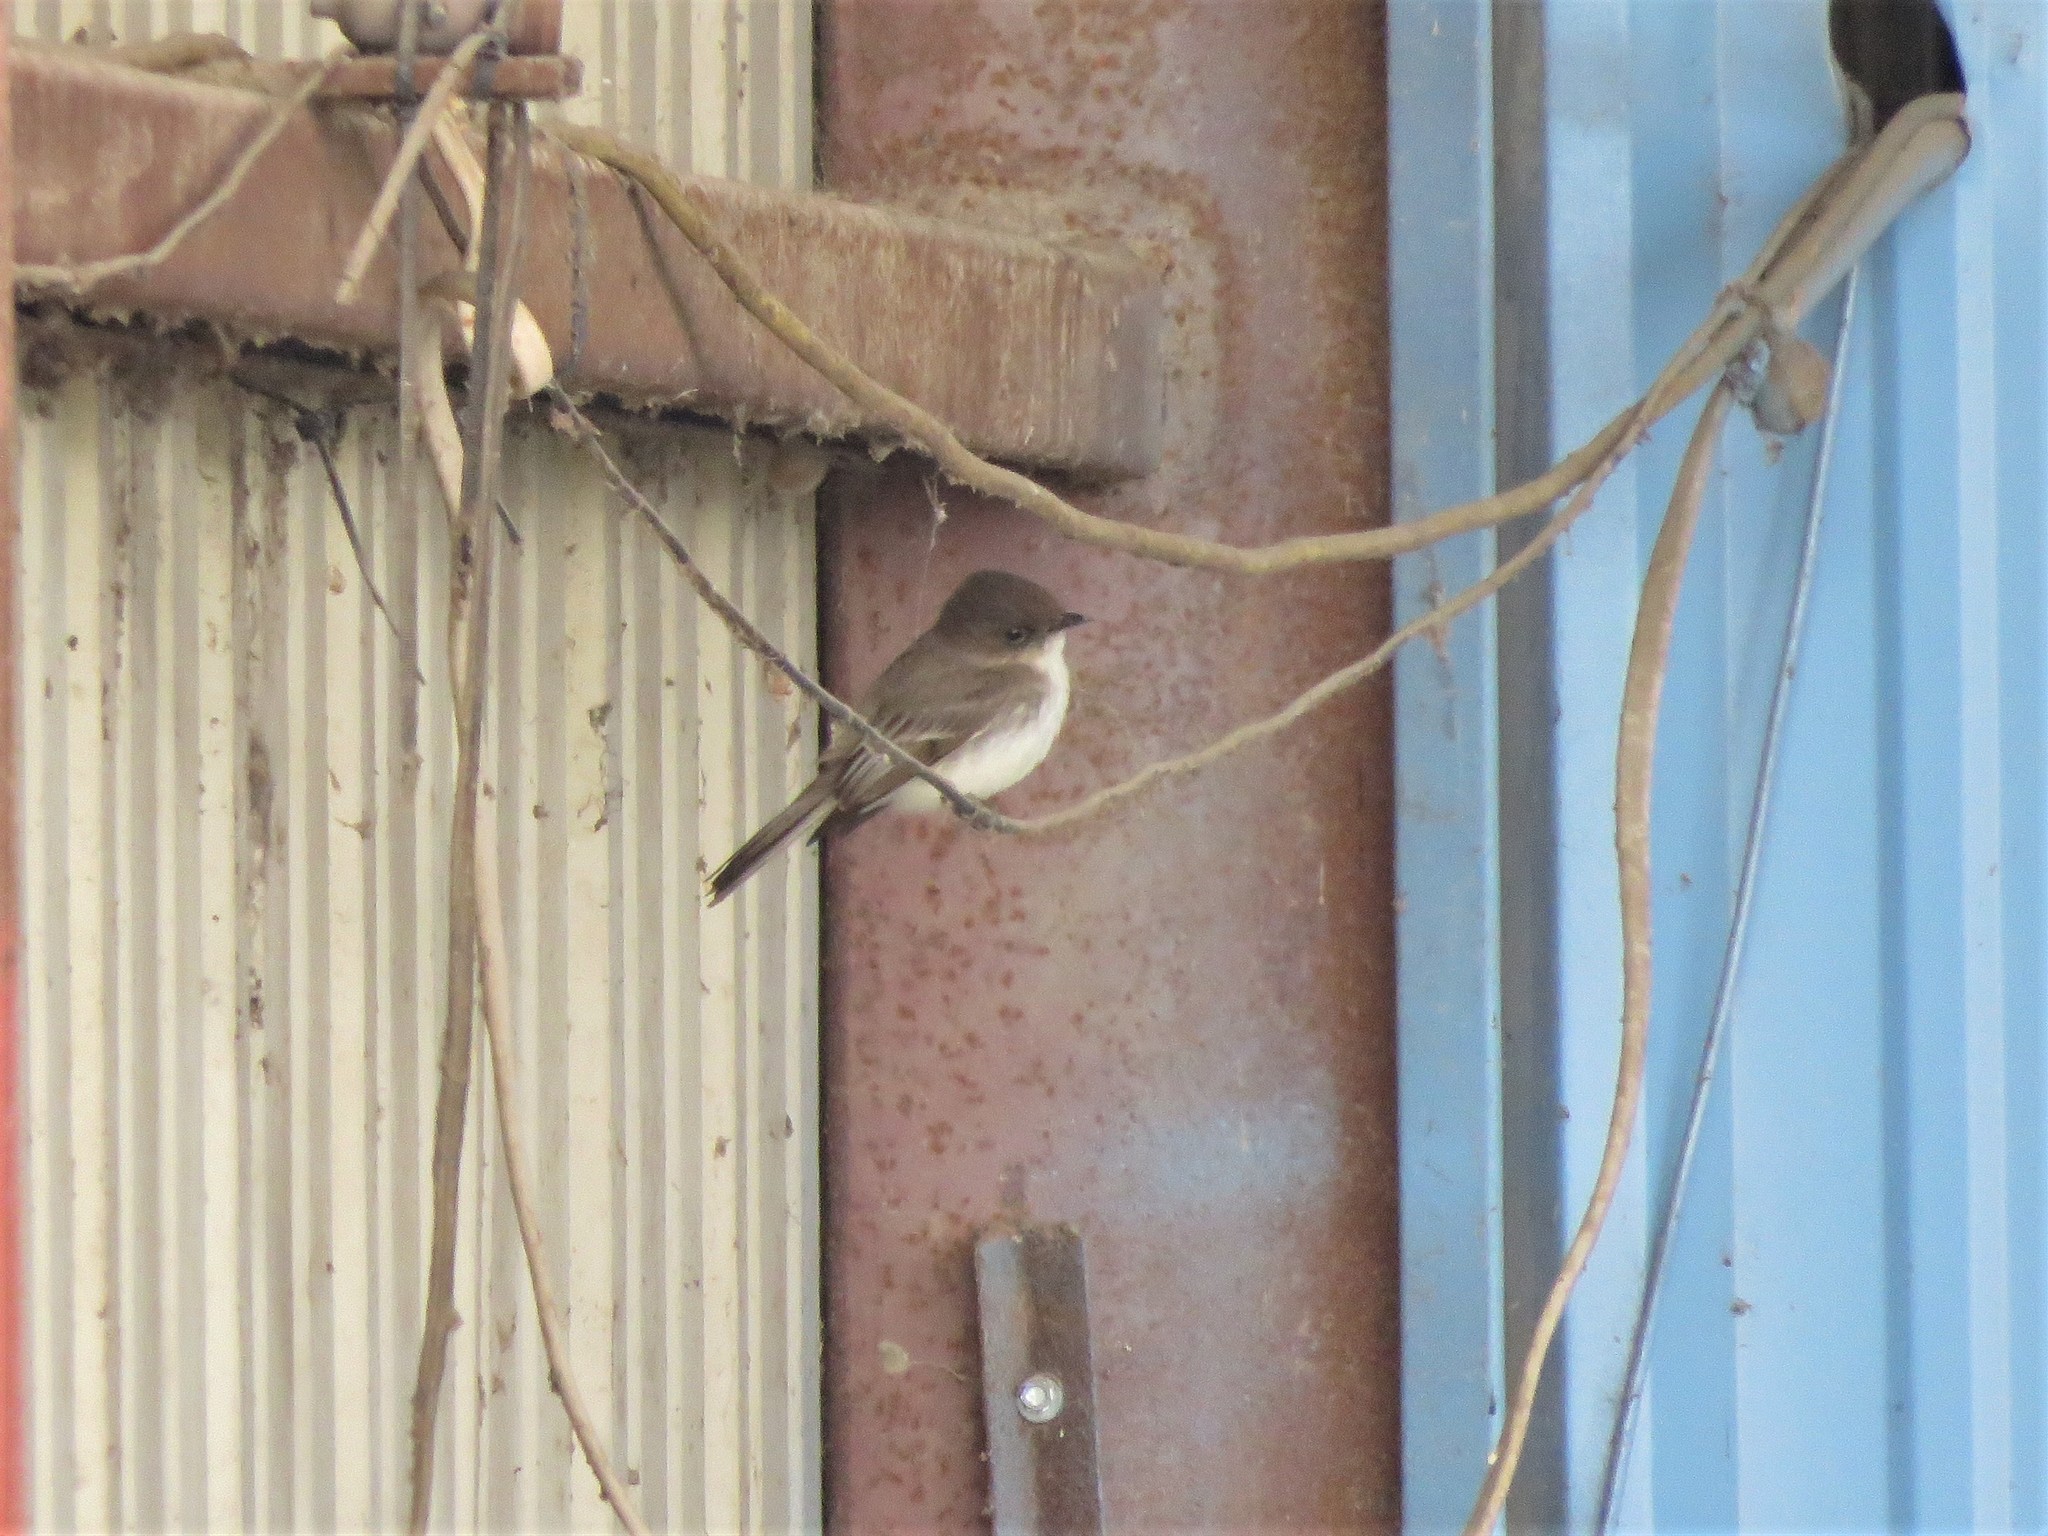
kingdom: Animalia
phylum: Chordata
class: Aves
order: Passeriformes
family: Tyrannidae
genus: Sayornis
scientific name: Sayornis phoebe
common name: Eastern phoebe
